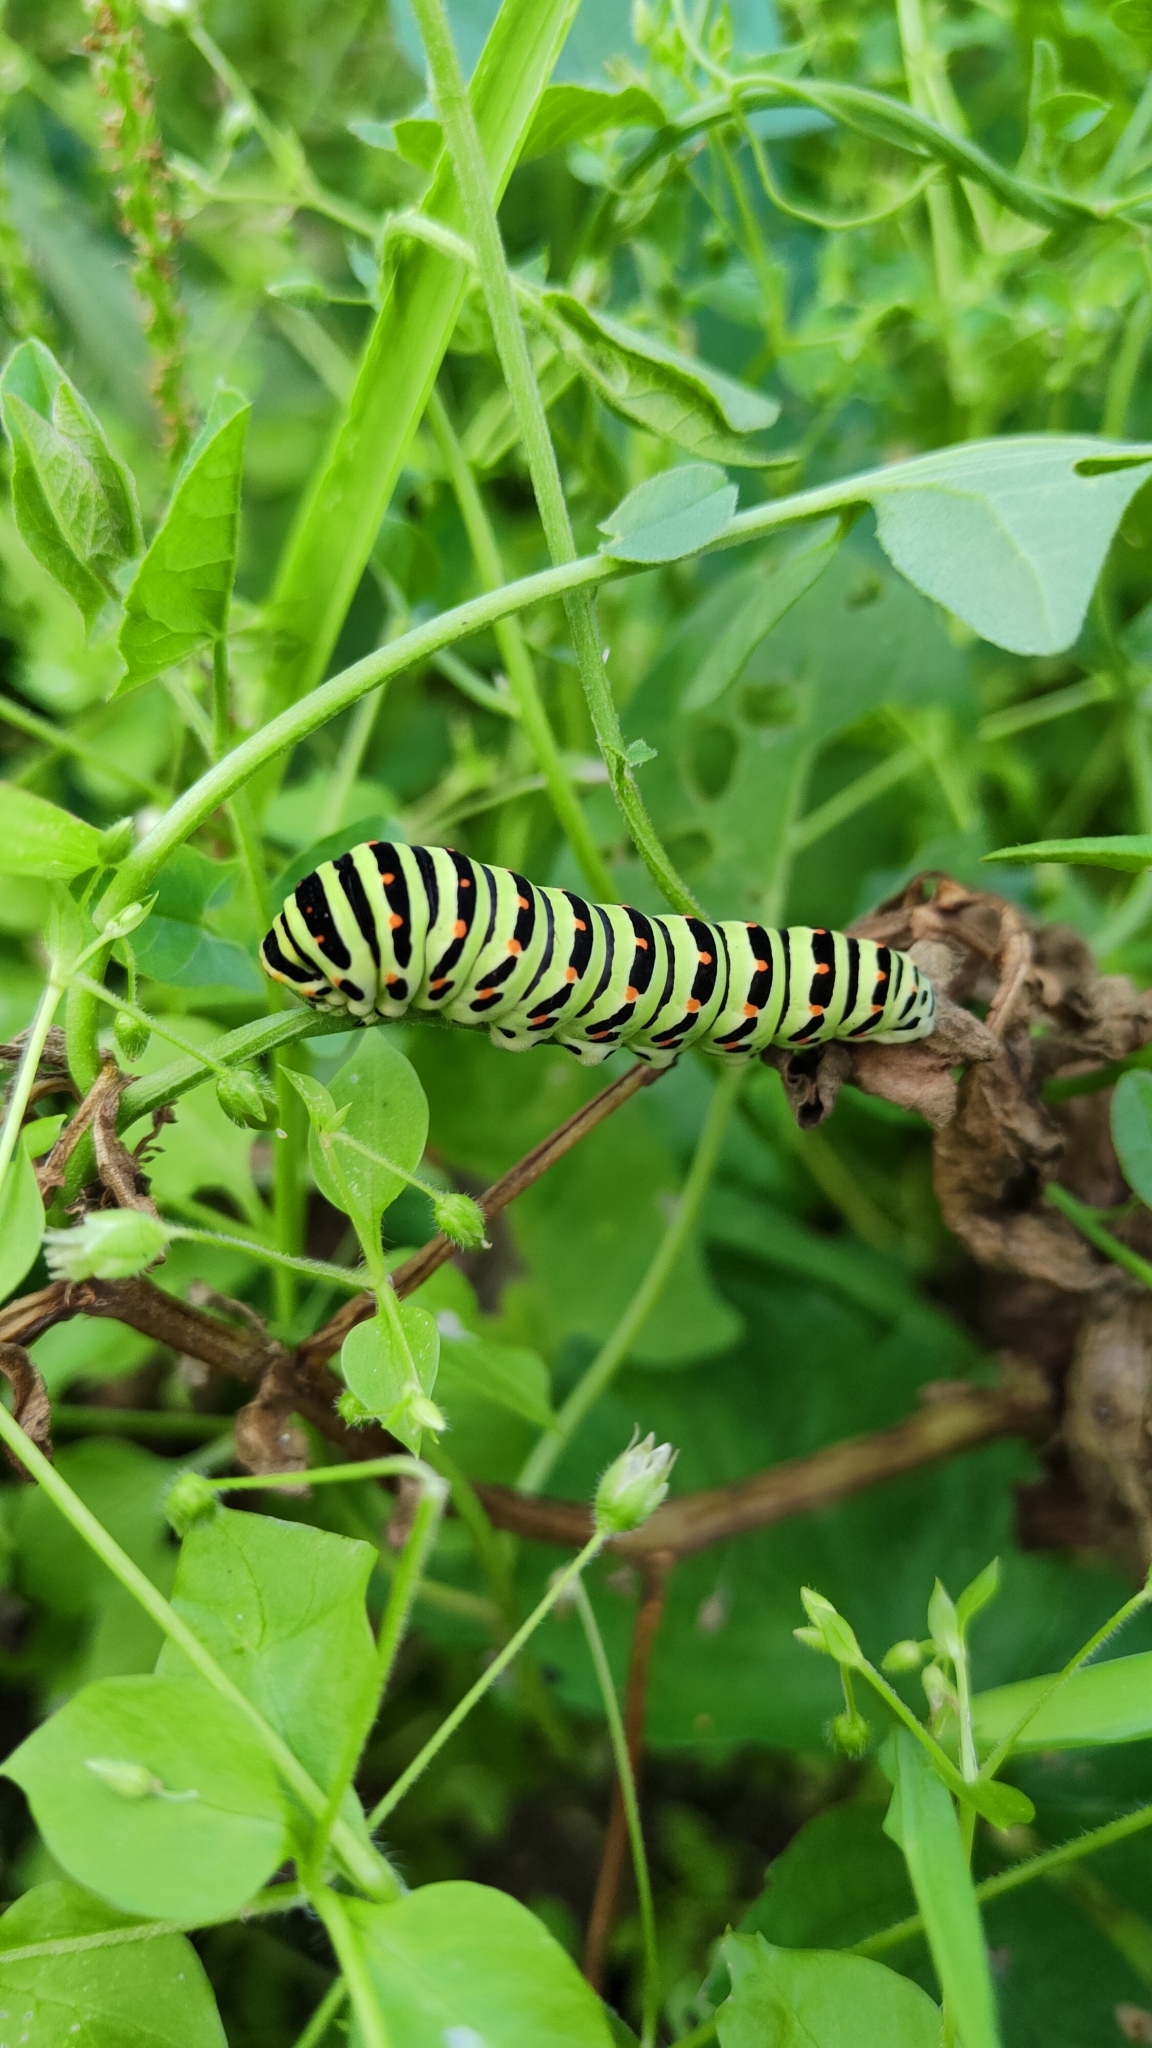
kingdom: Animalia
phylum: Arthropoda
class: Insecta
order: Lepidoptera
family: Papilionidae
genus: Papilio
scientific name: Papilio machaon
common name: Swallowtail
